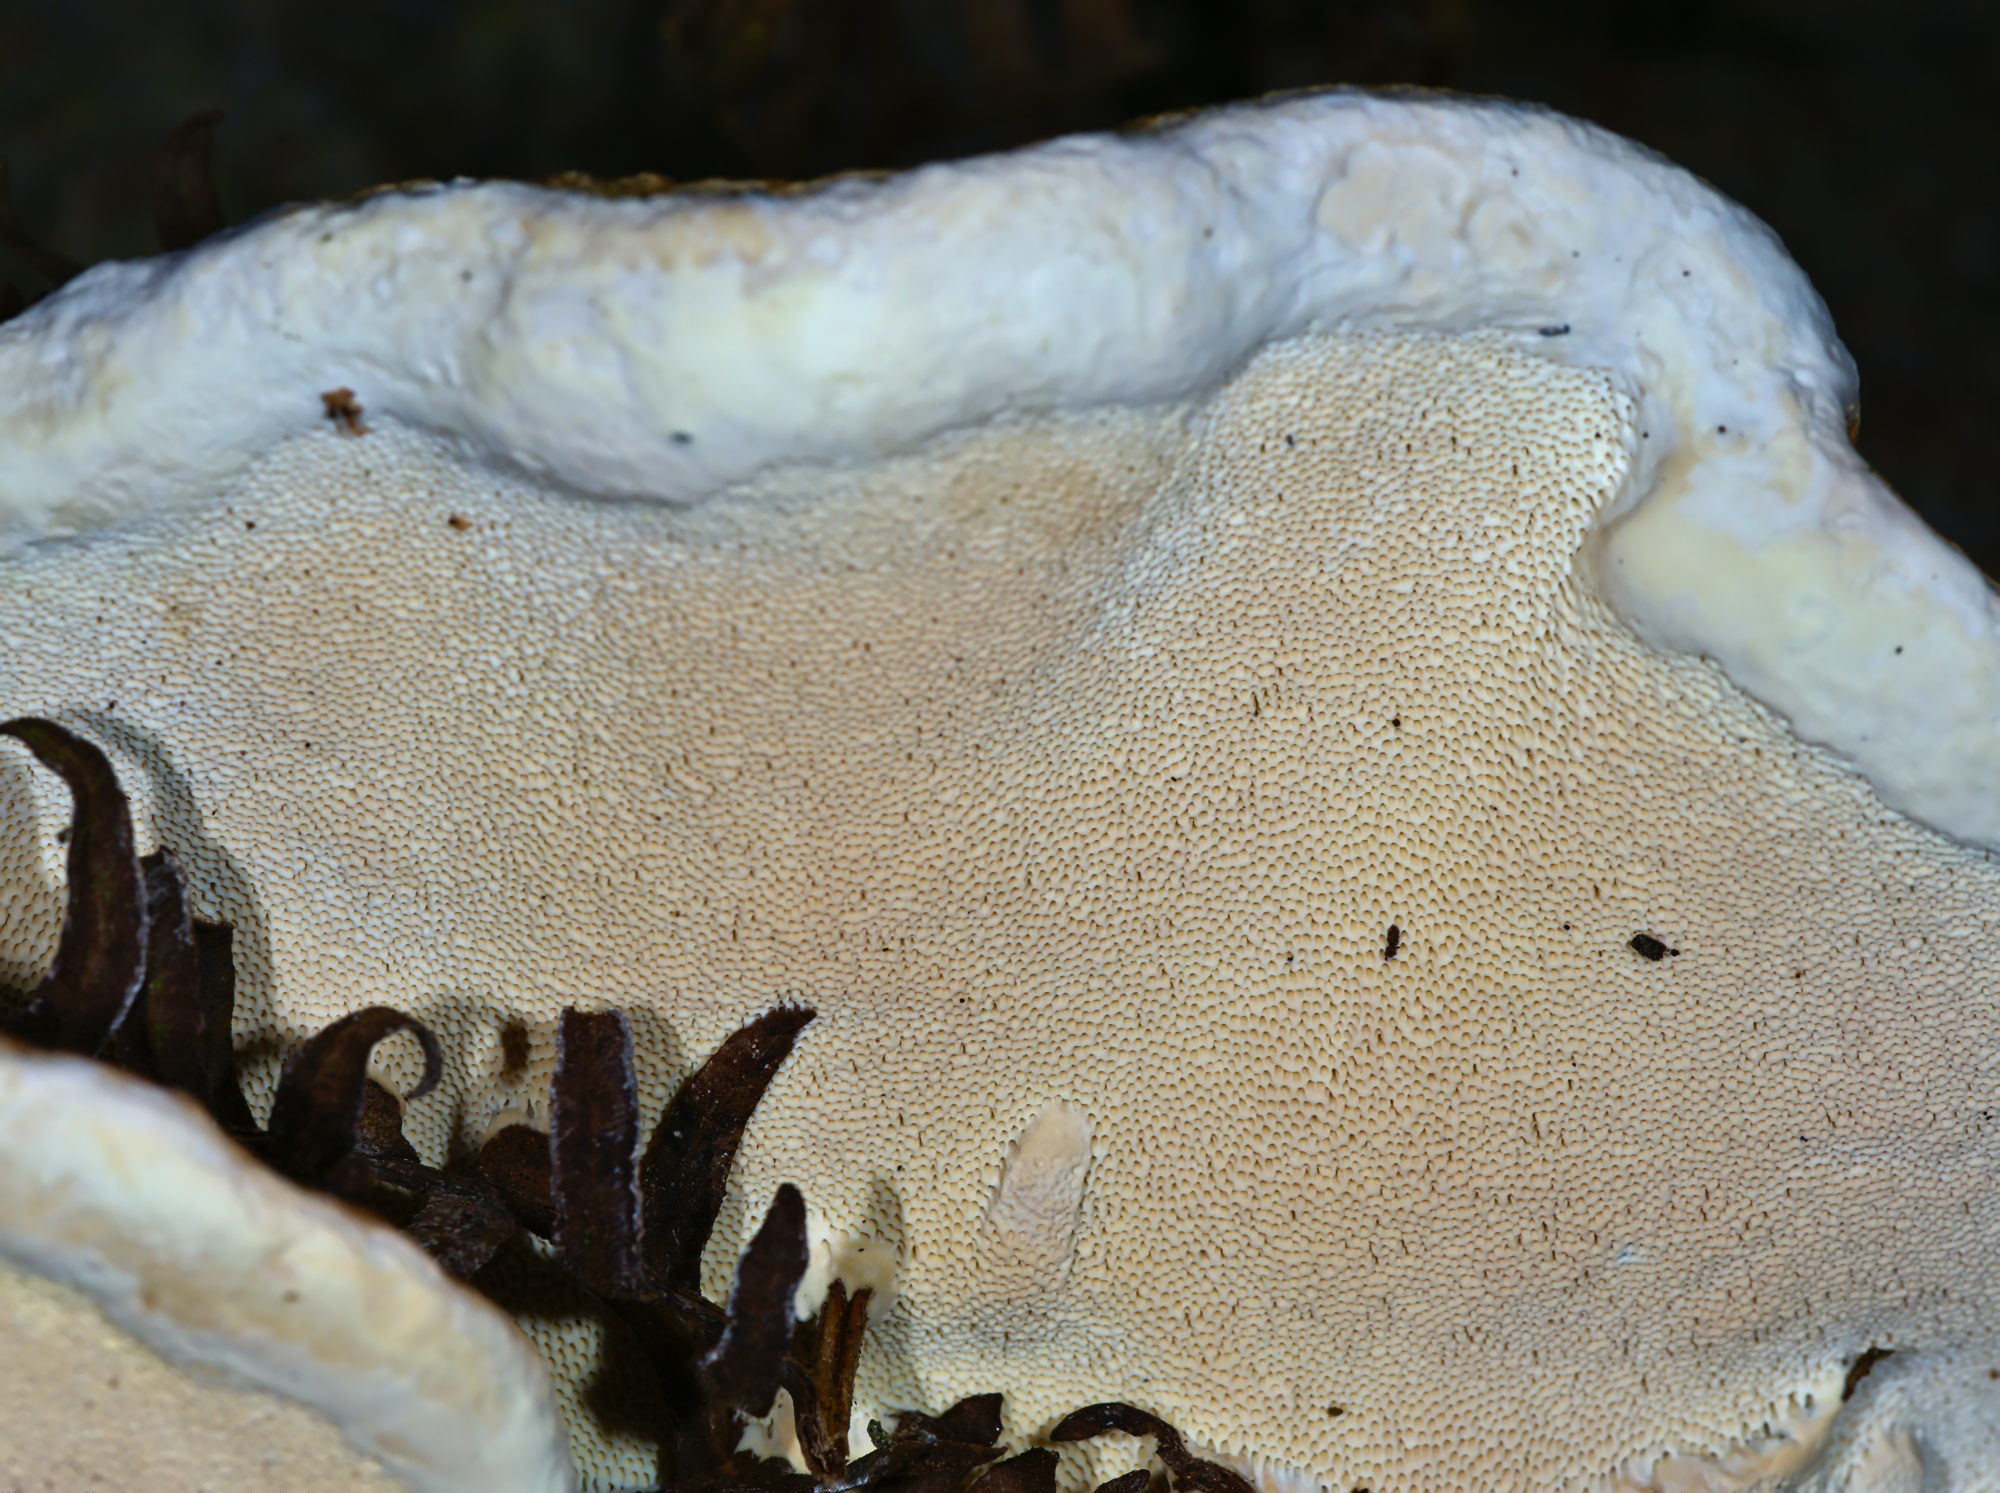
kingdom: Fungi
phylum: Basidiomycota
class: Agaricomycetes
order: Polyporales
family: Fomitopsidaceae
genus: Fomitopsis
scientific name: Fomitopsis pinicola
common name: Red-belted bracket
